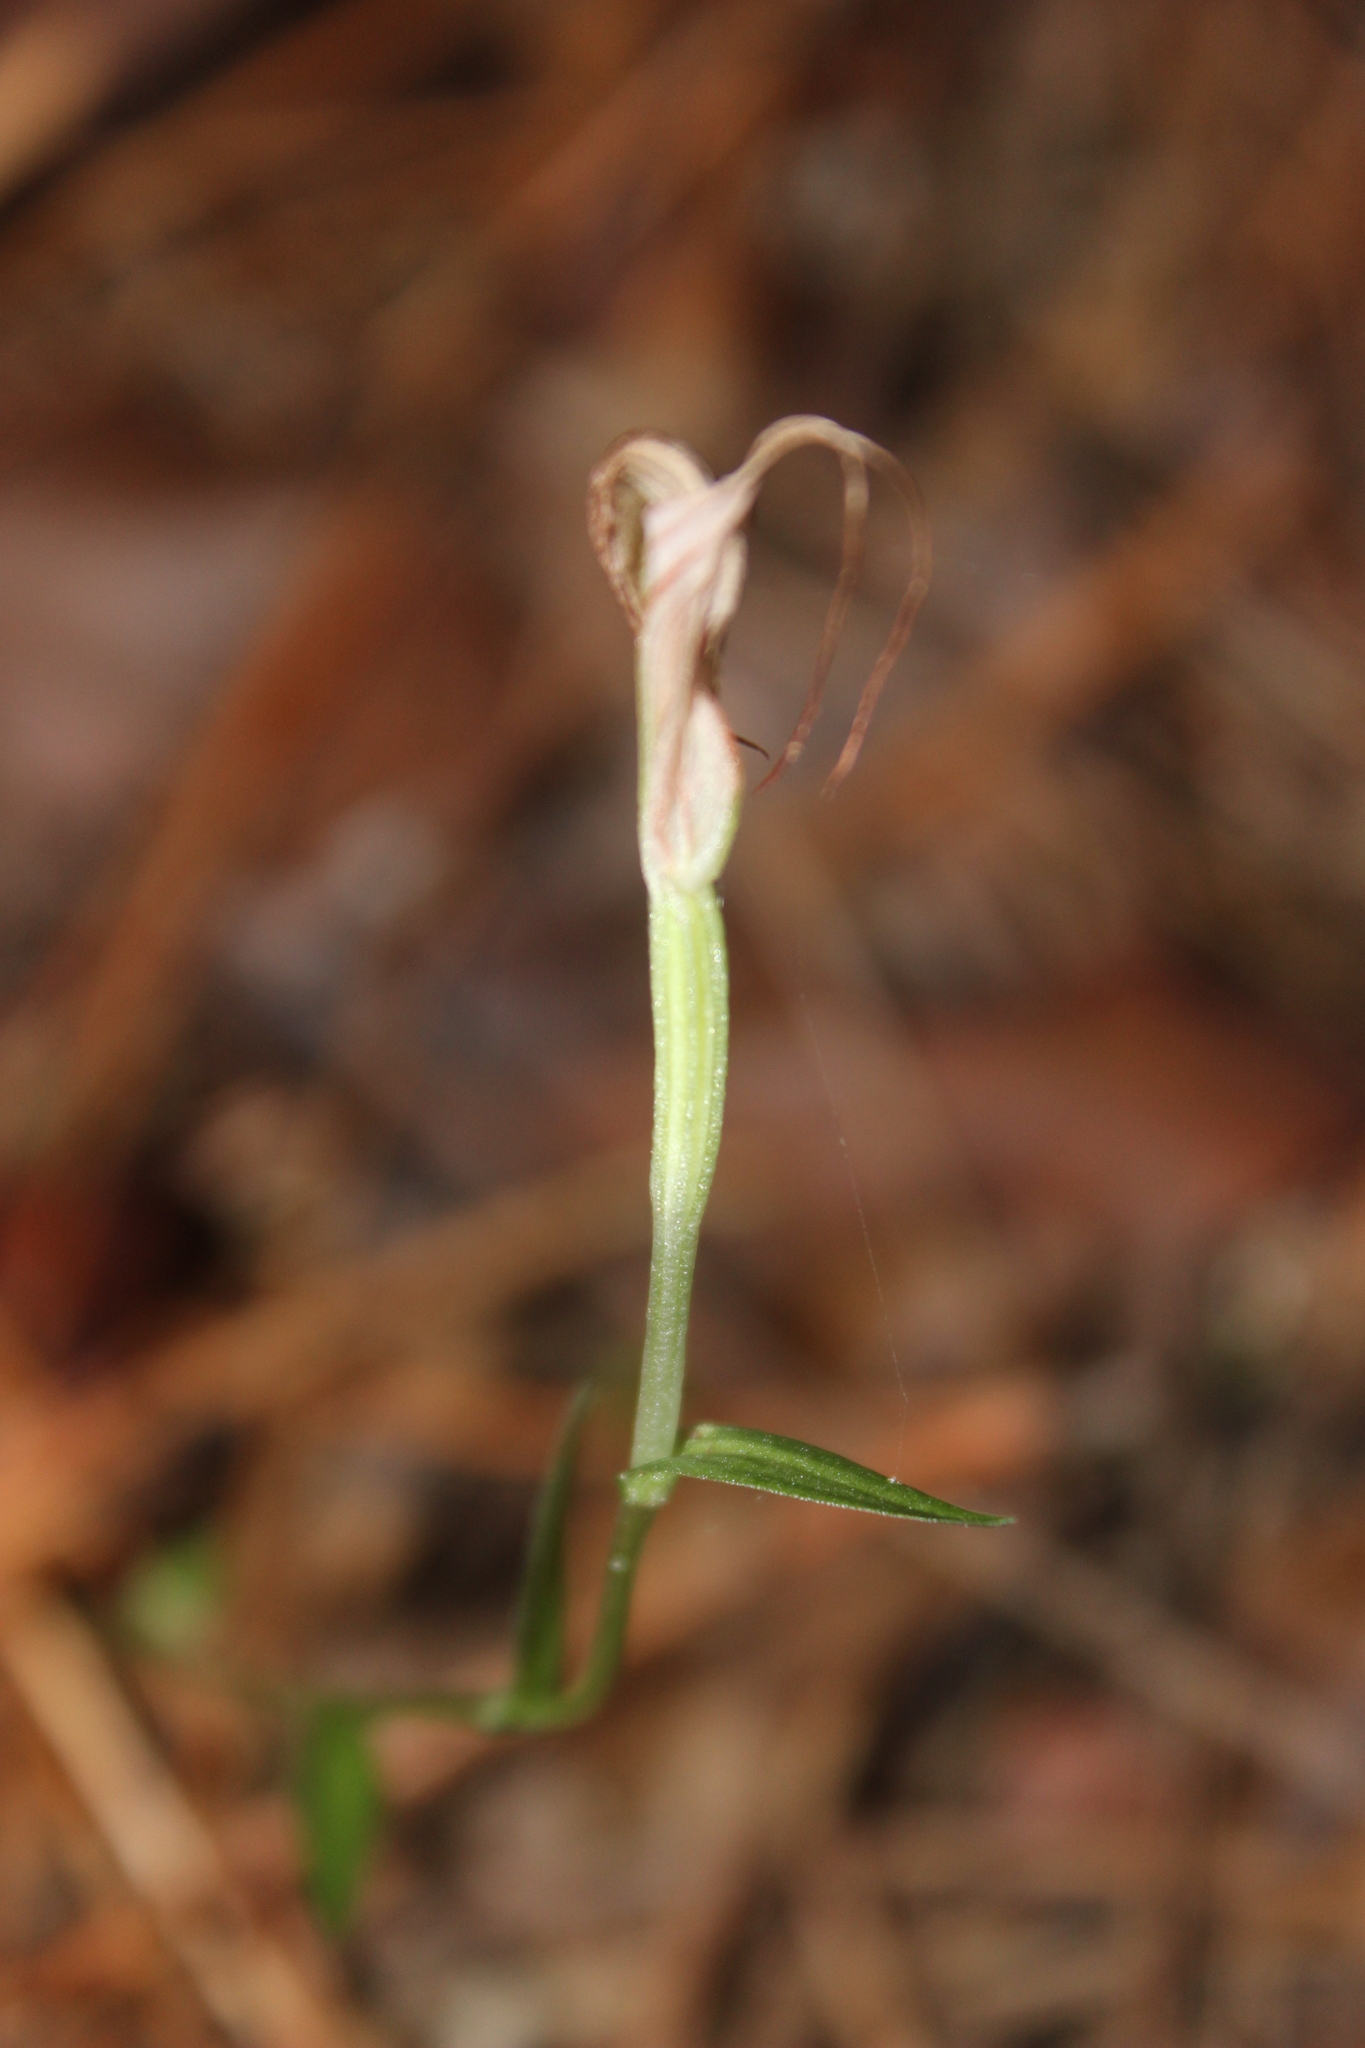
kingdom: Plantae
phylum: Tracheophyta
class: Liliopsida
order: Asparagales
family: Orchidaceae
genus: Pterostylis
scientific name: Pterostylis alobula
